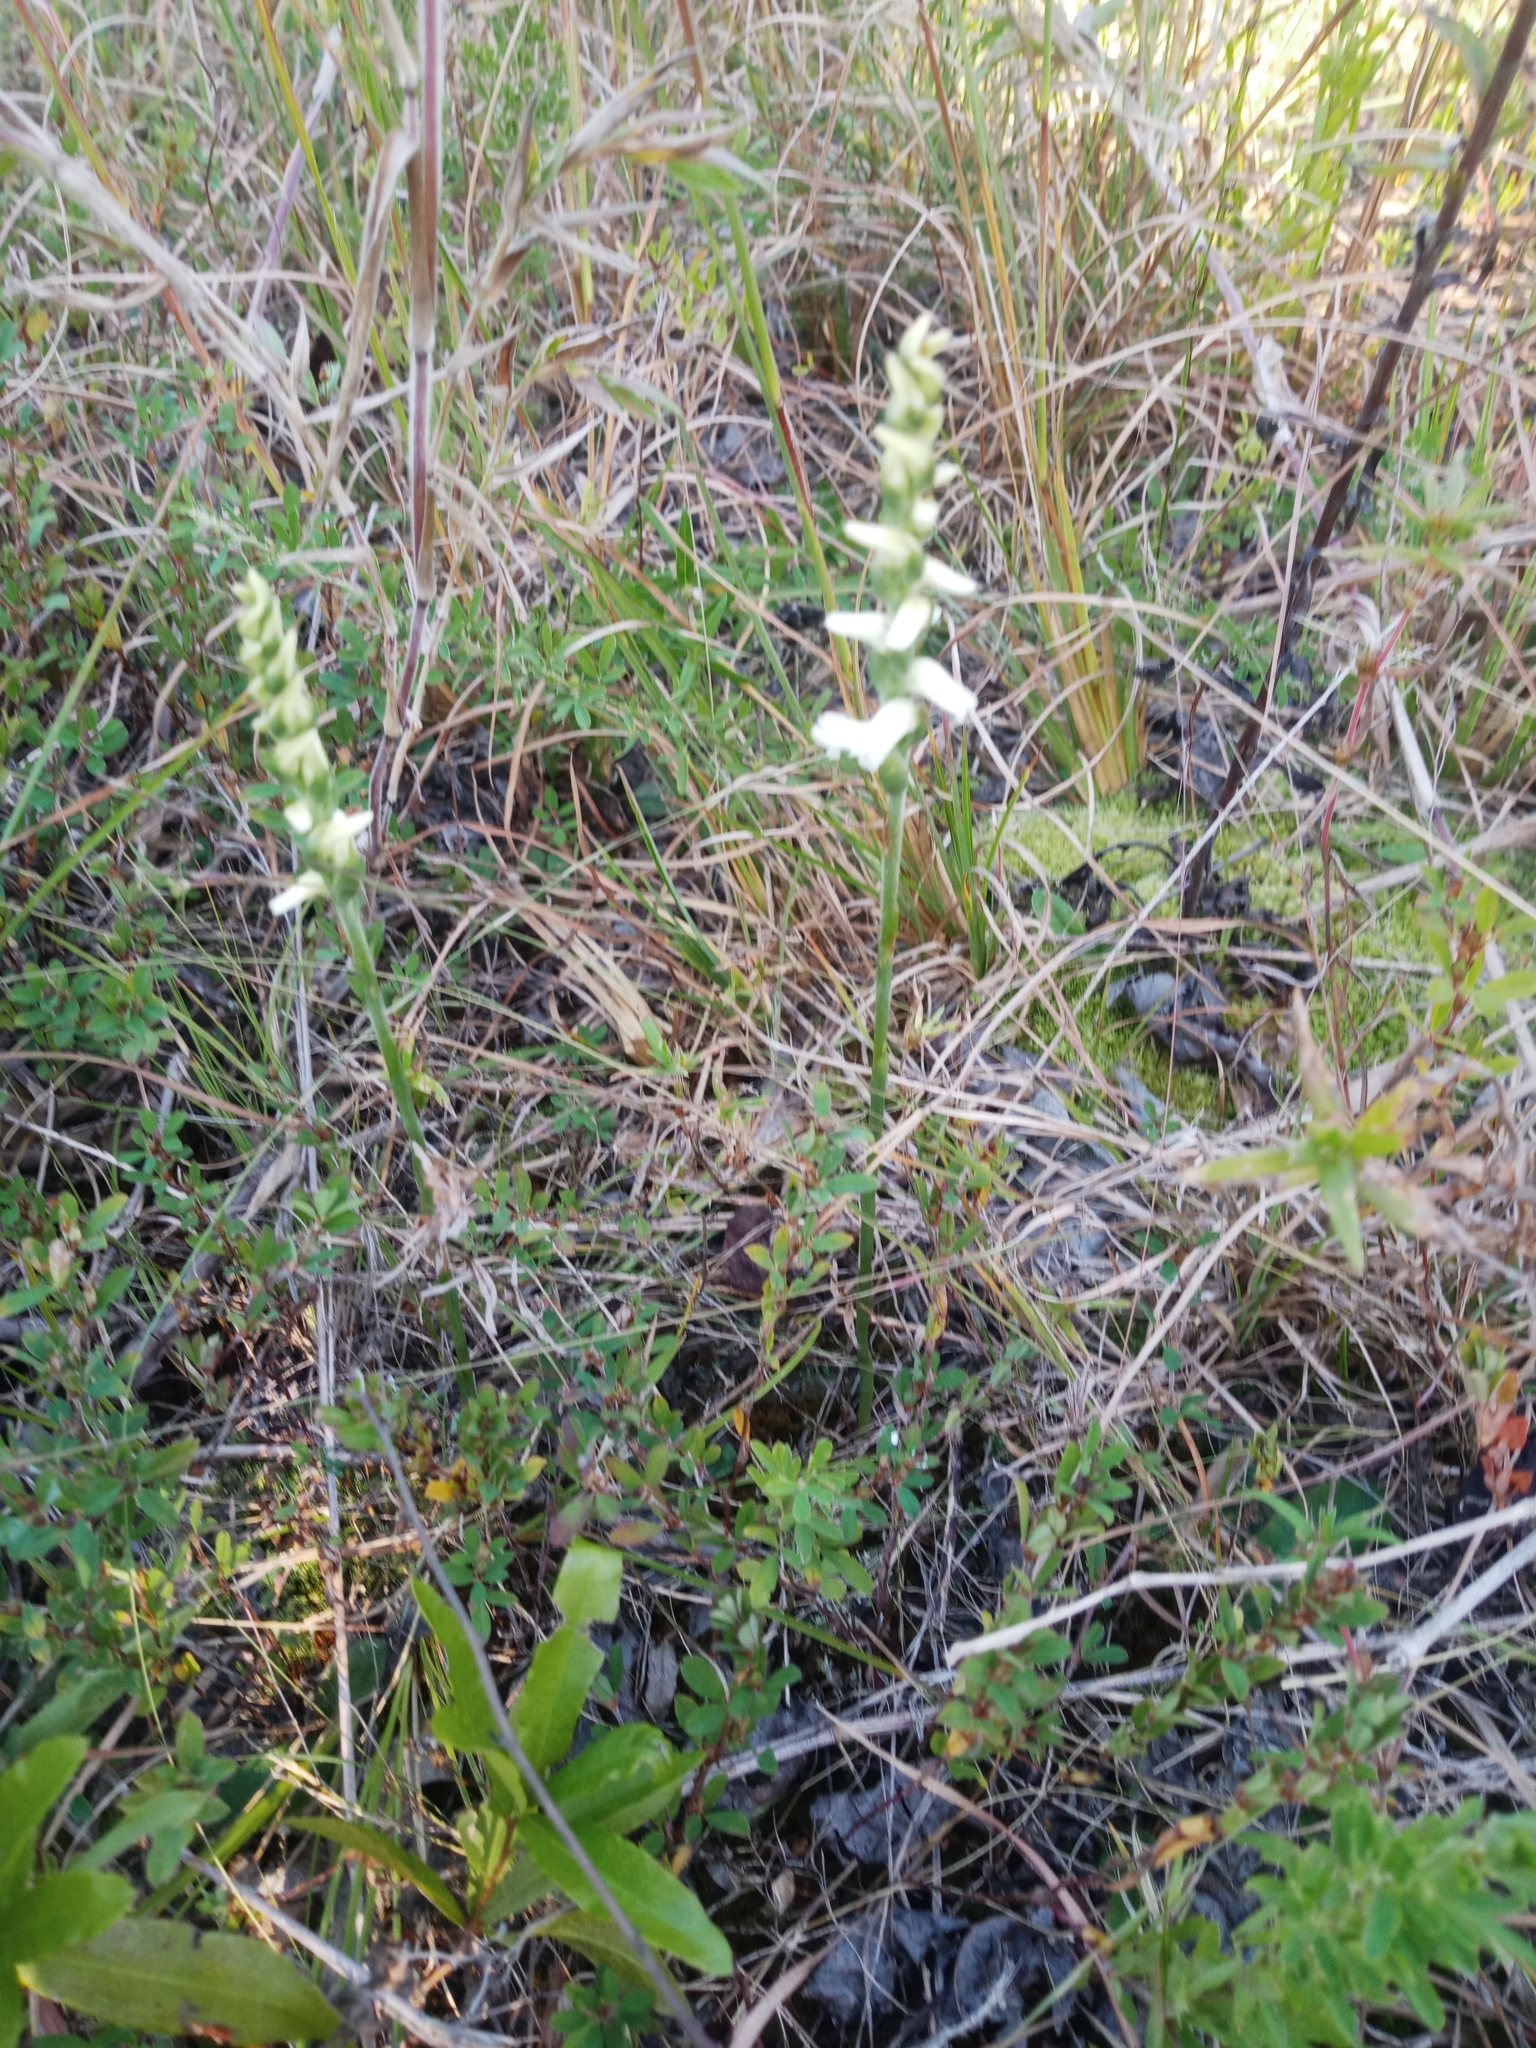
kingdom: Plantae
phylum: Tracheophyta
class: Liliopsida
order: Asparagales
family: Orchidaceae
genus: Spiranthes
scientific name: Spiranthes cernua
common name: Dropping ladies'-tresses
